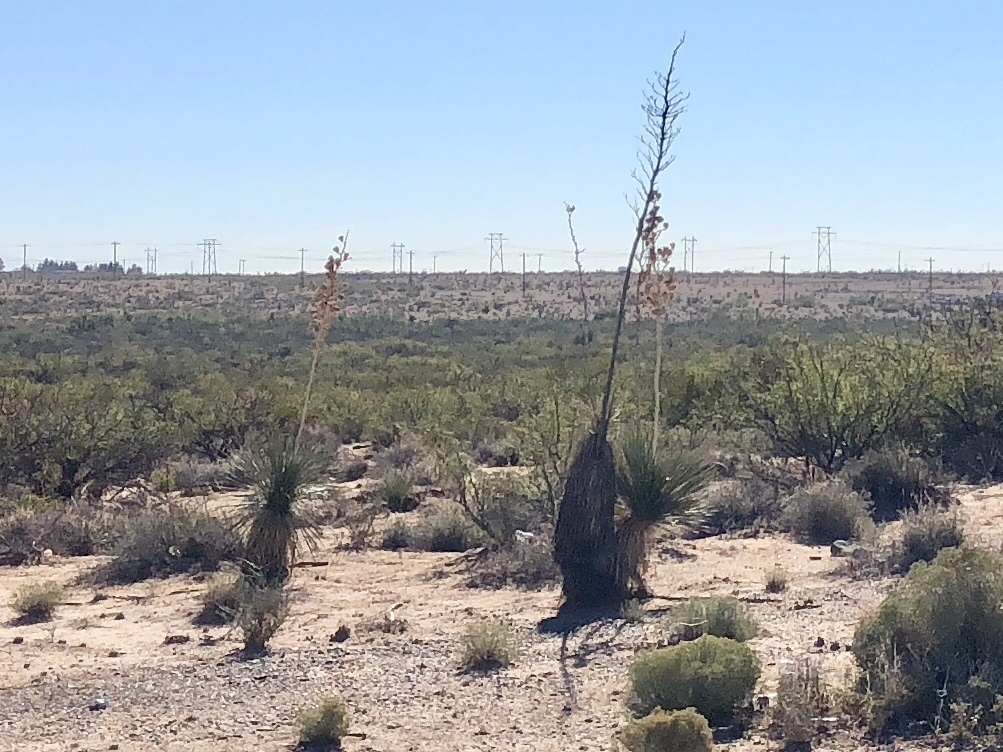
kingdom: Plantae
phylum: Tracheophyta
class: Liliopsida
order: Asparagales
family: Asparagaceae
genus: Yucca
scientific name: Yucca elata
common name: Palmella
